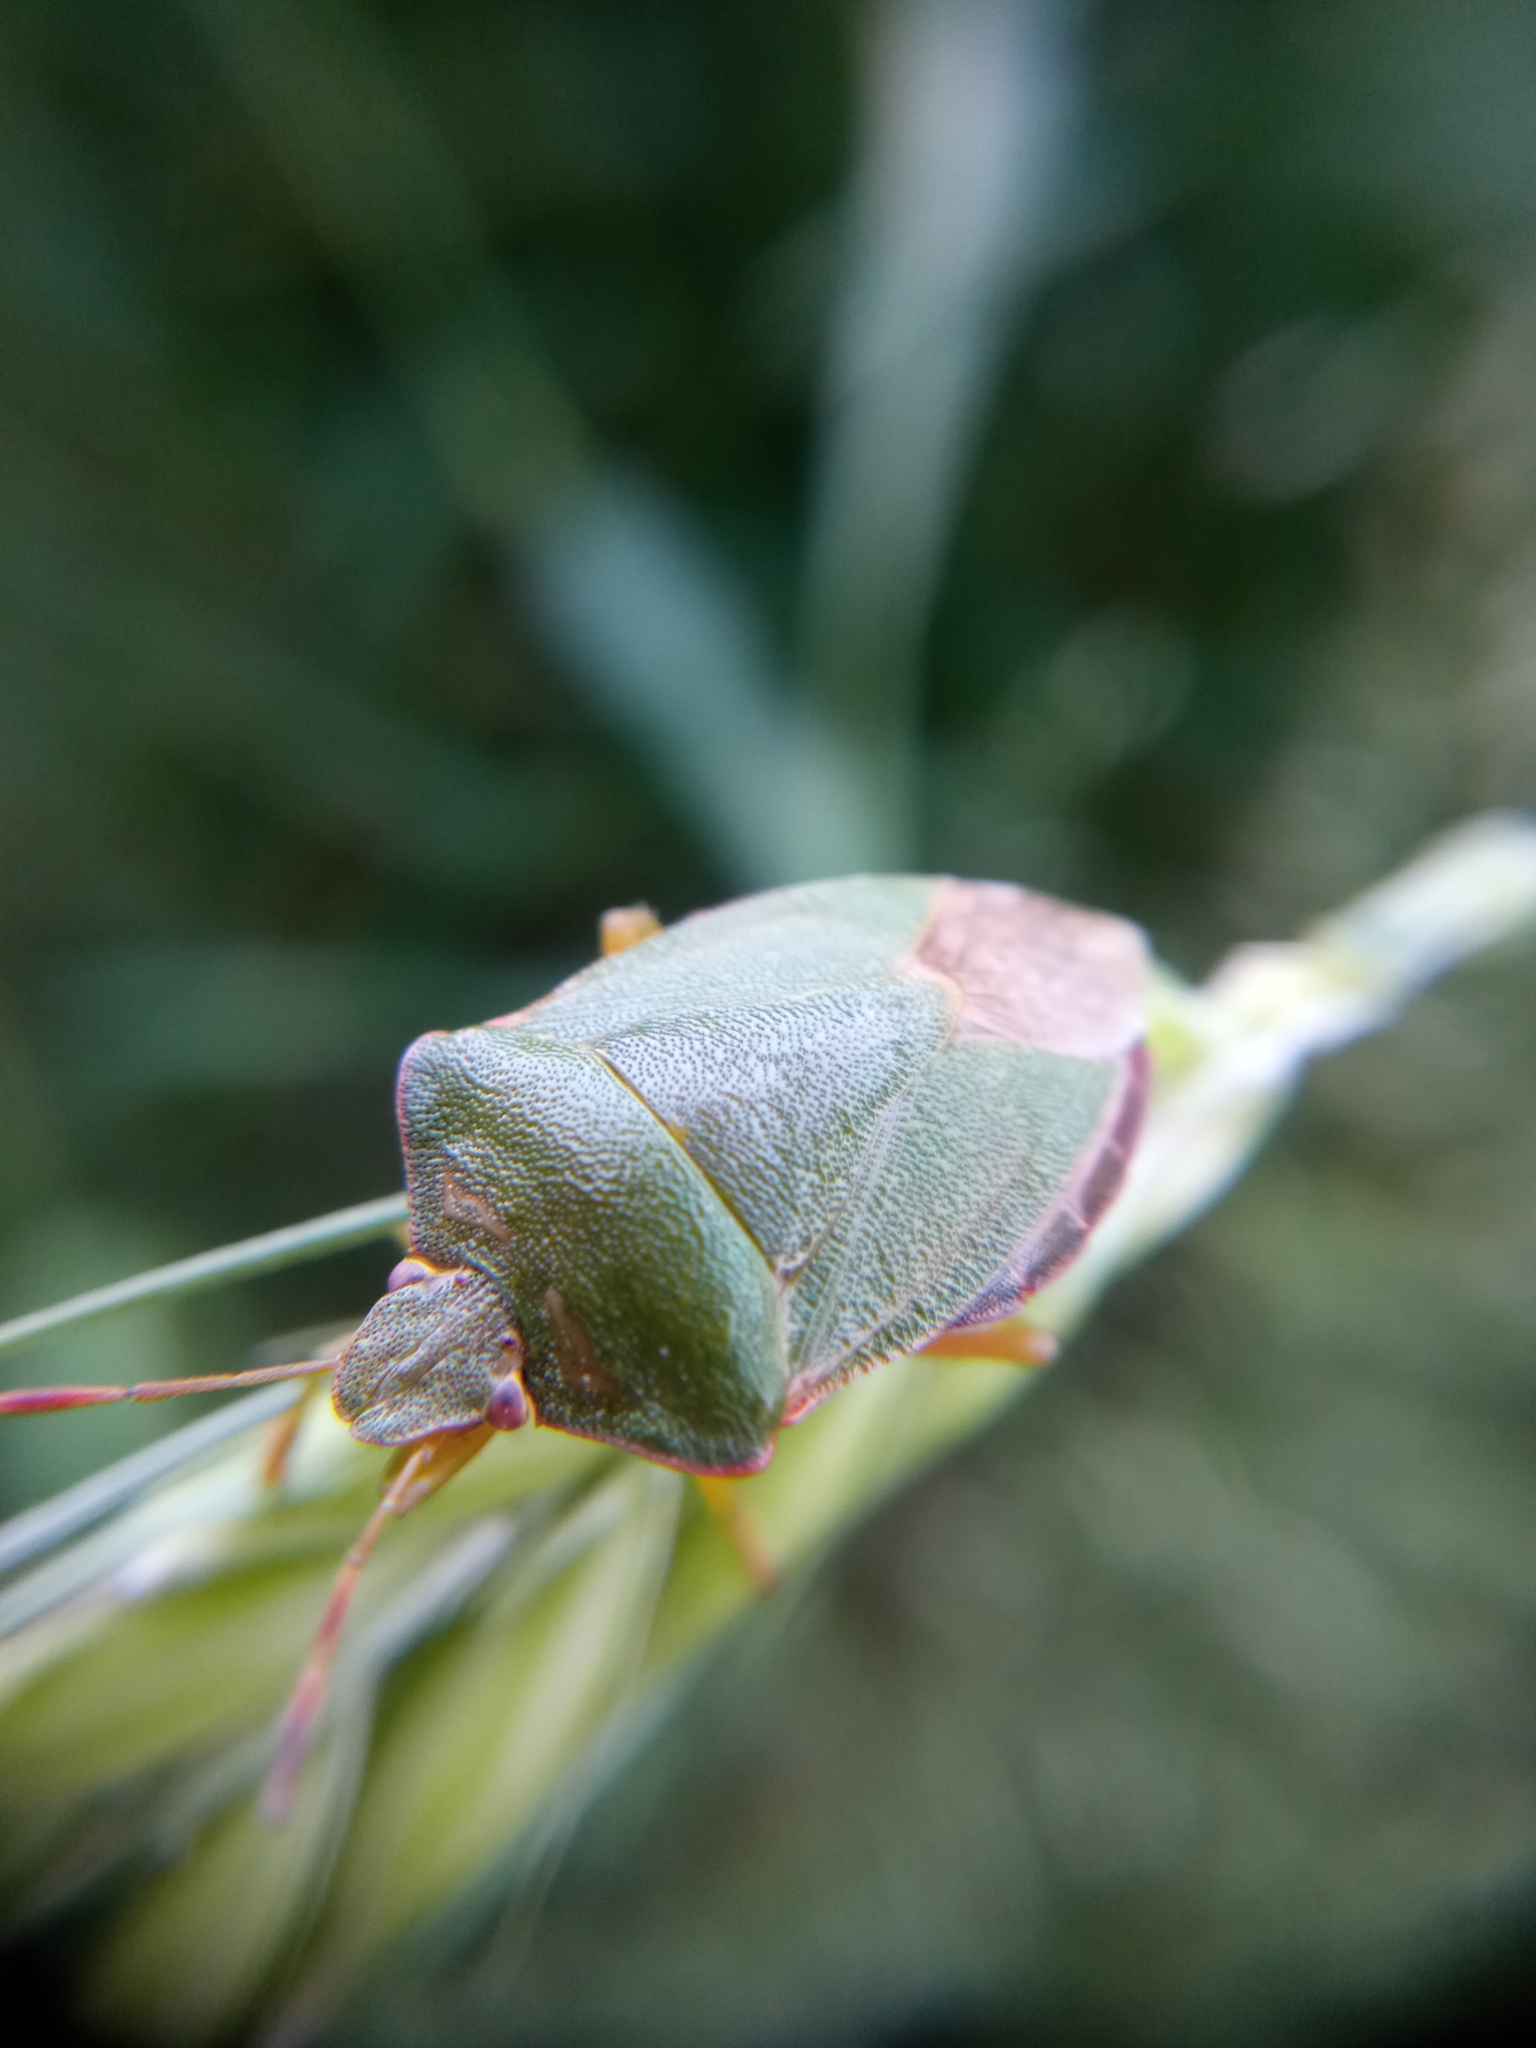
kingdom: Animalia
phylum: Arthropoda
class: Insecta
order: Hemiptera
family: Pentatomidae
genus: Palomena
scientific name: Palomena prasina
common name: Green shieldbug
